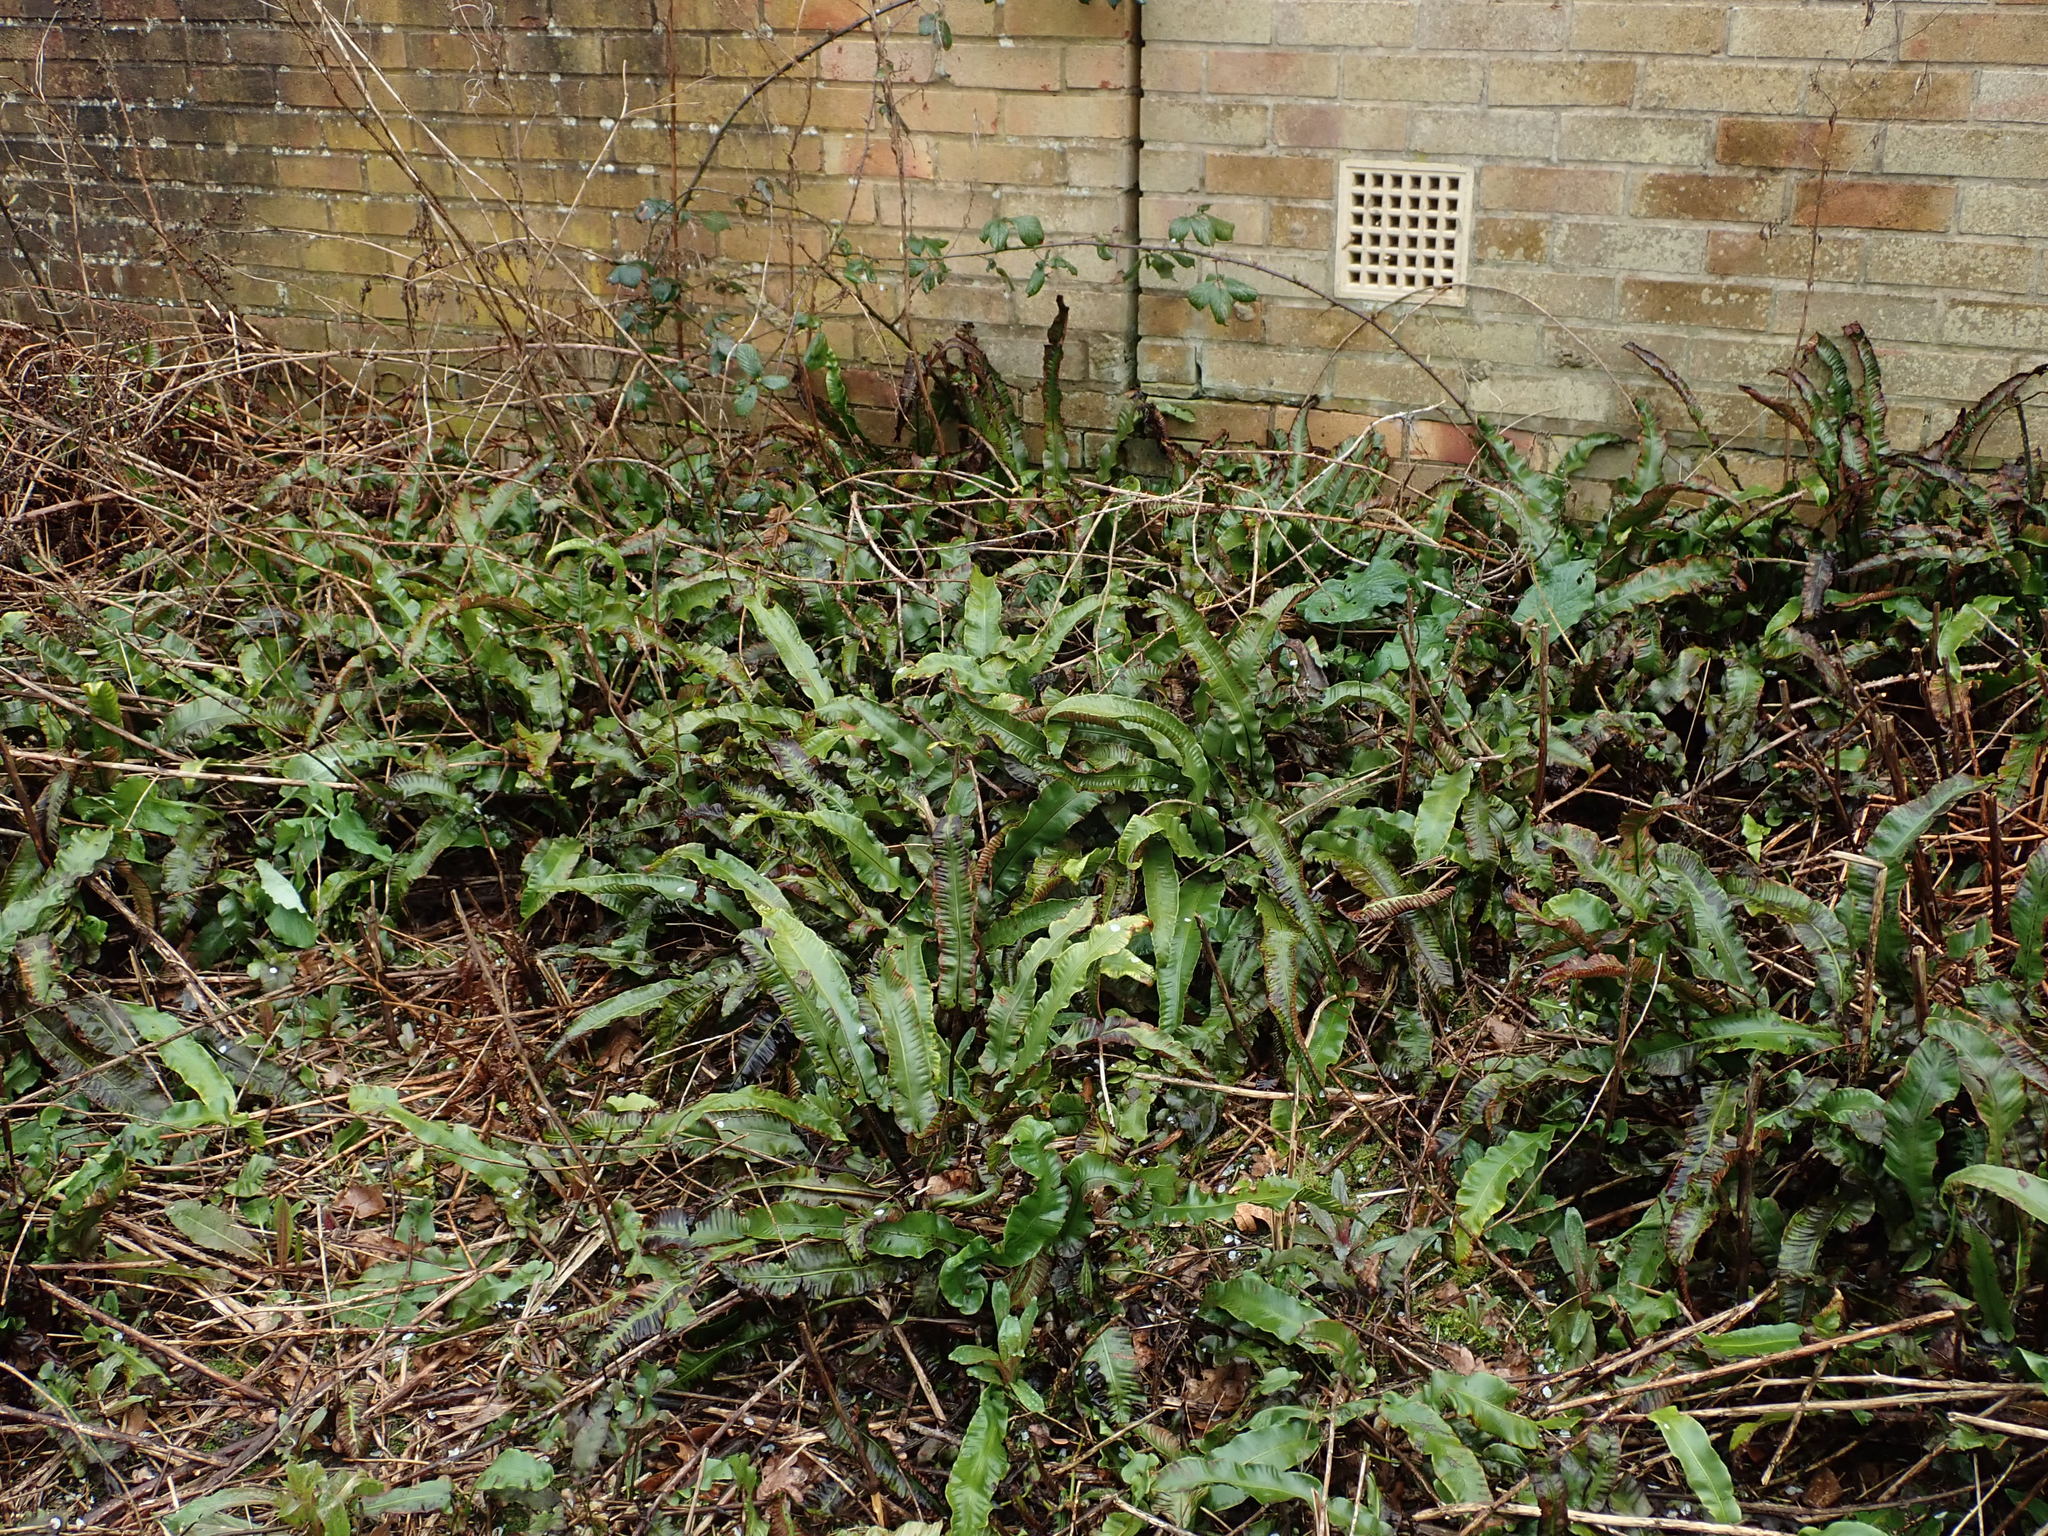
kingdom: Plantae
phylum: Tracheophyta
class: Polypodiopsida
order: Polypodiales
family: Aspleniaceae
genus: Asplenium
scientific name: Asplenium scolopendrium
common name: Hart's-tongue fern
